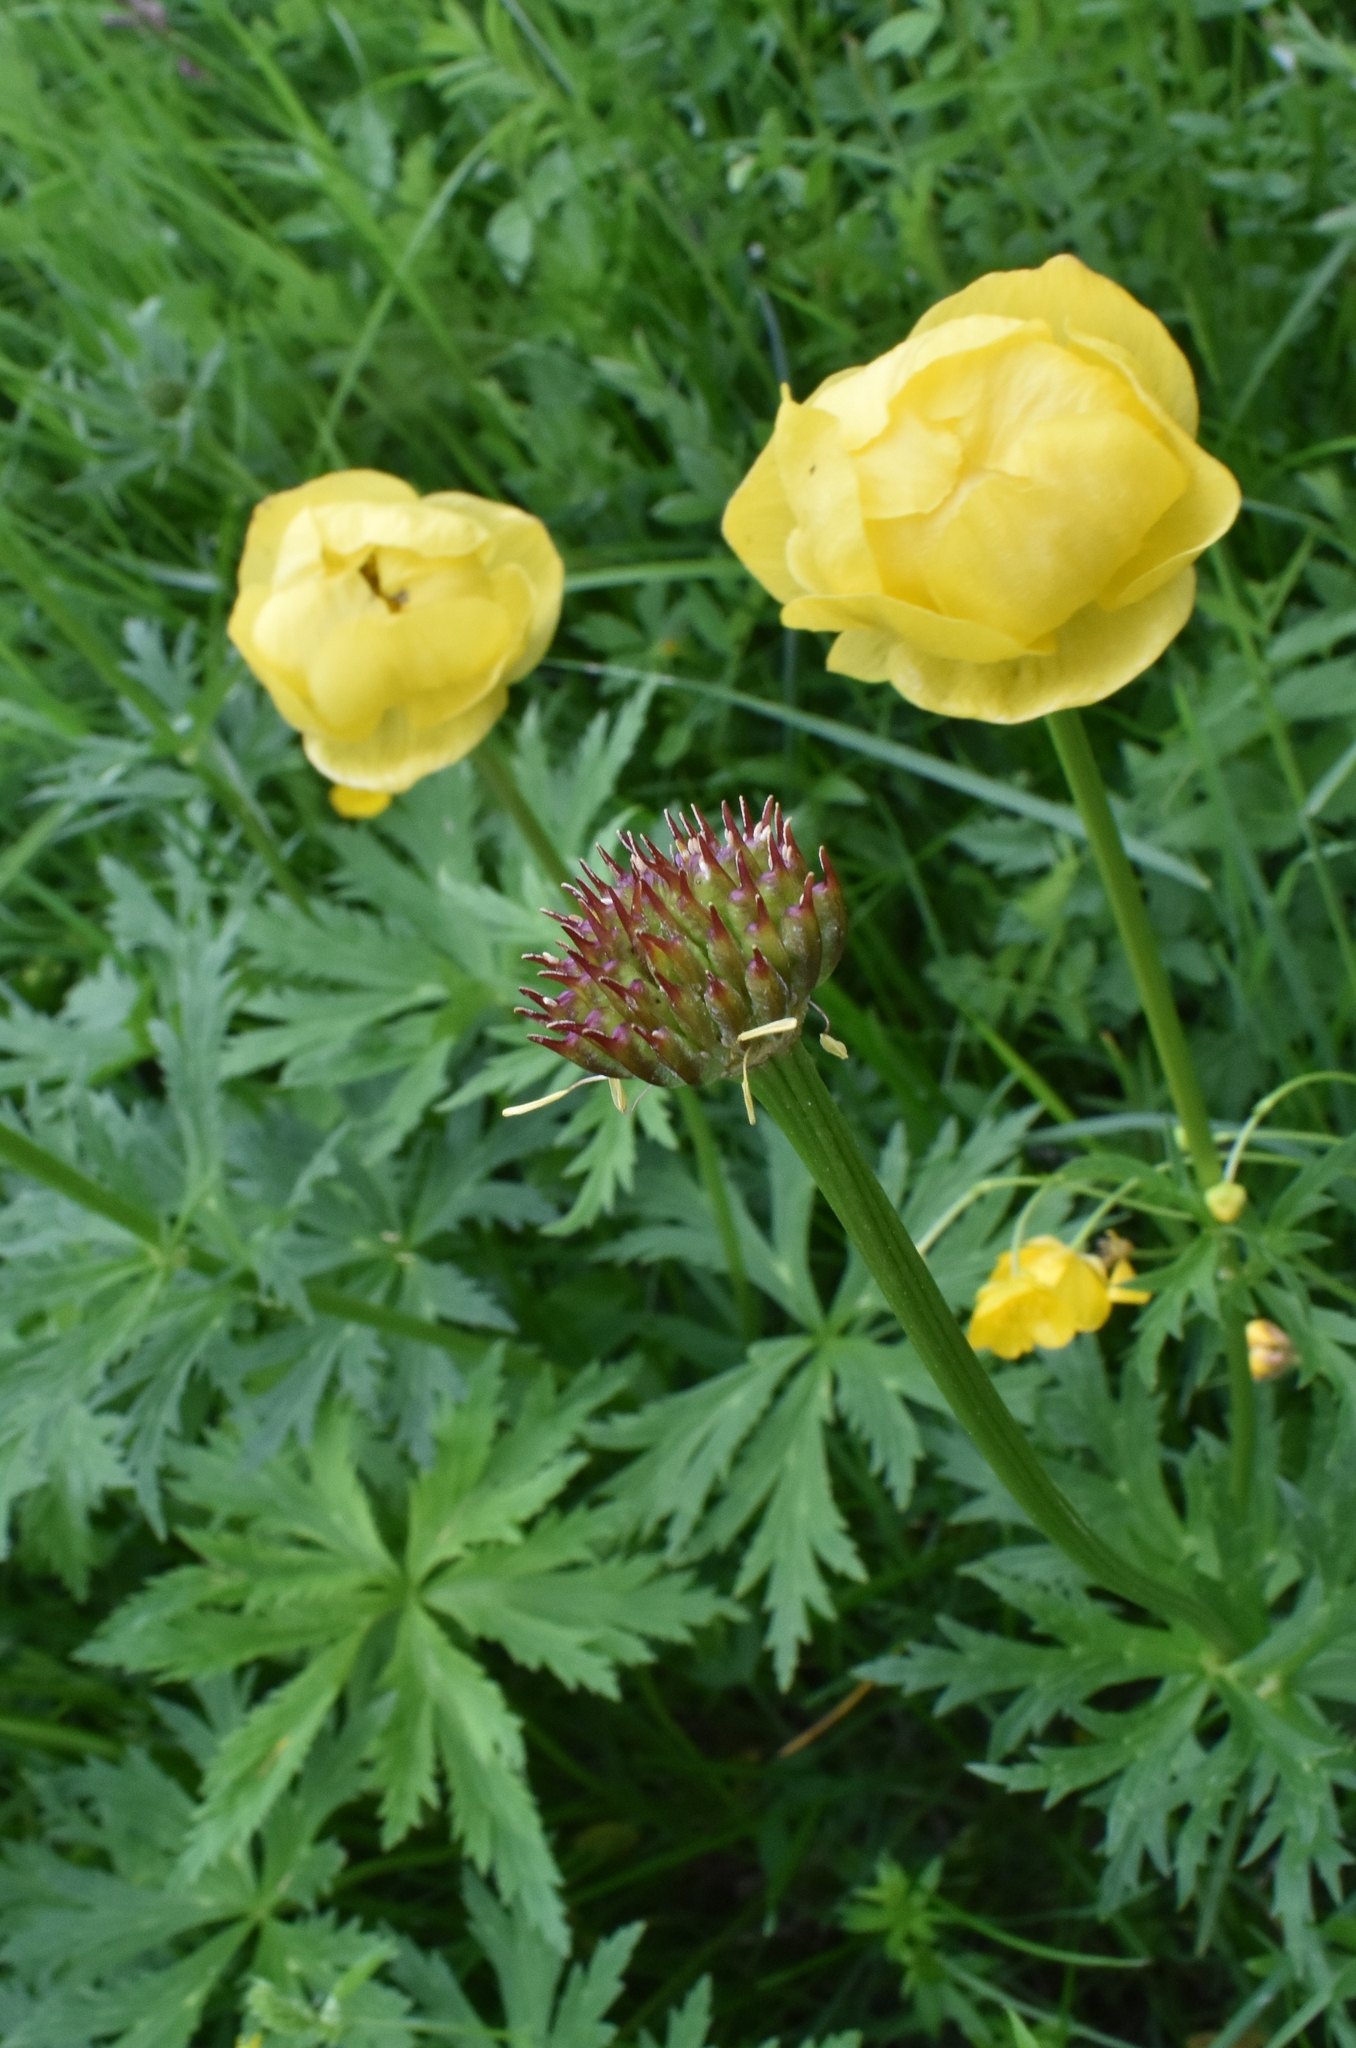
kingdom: Plantae
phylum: Tracheophyta
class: Magnoliopsida
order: Ranunculales
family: Ranunculaceae
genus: Trollius
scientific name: Trollius europaeus
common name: European globeflower
